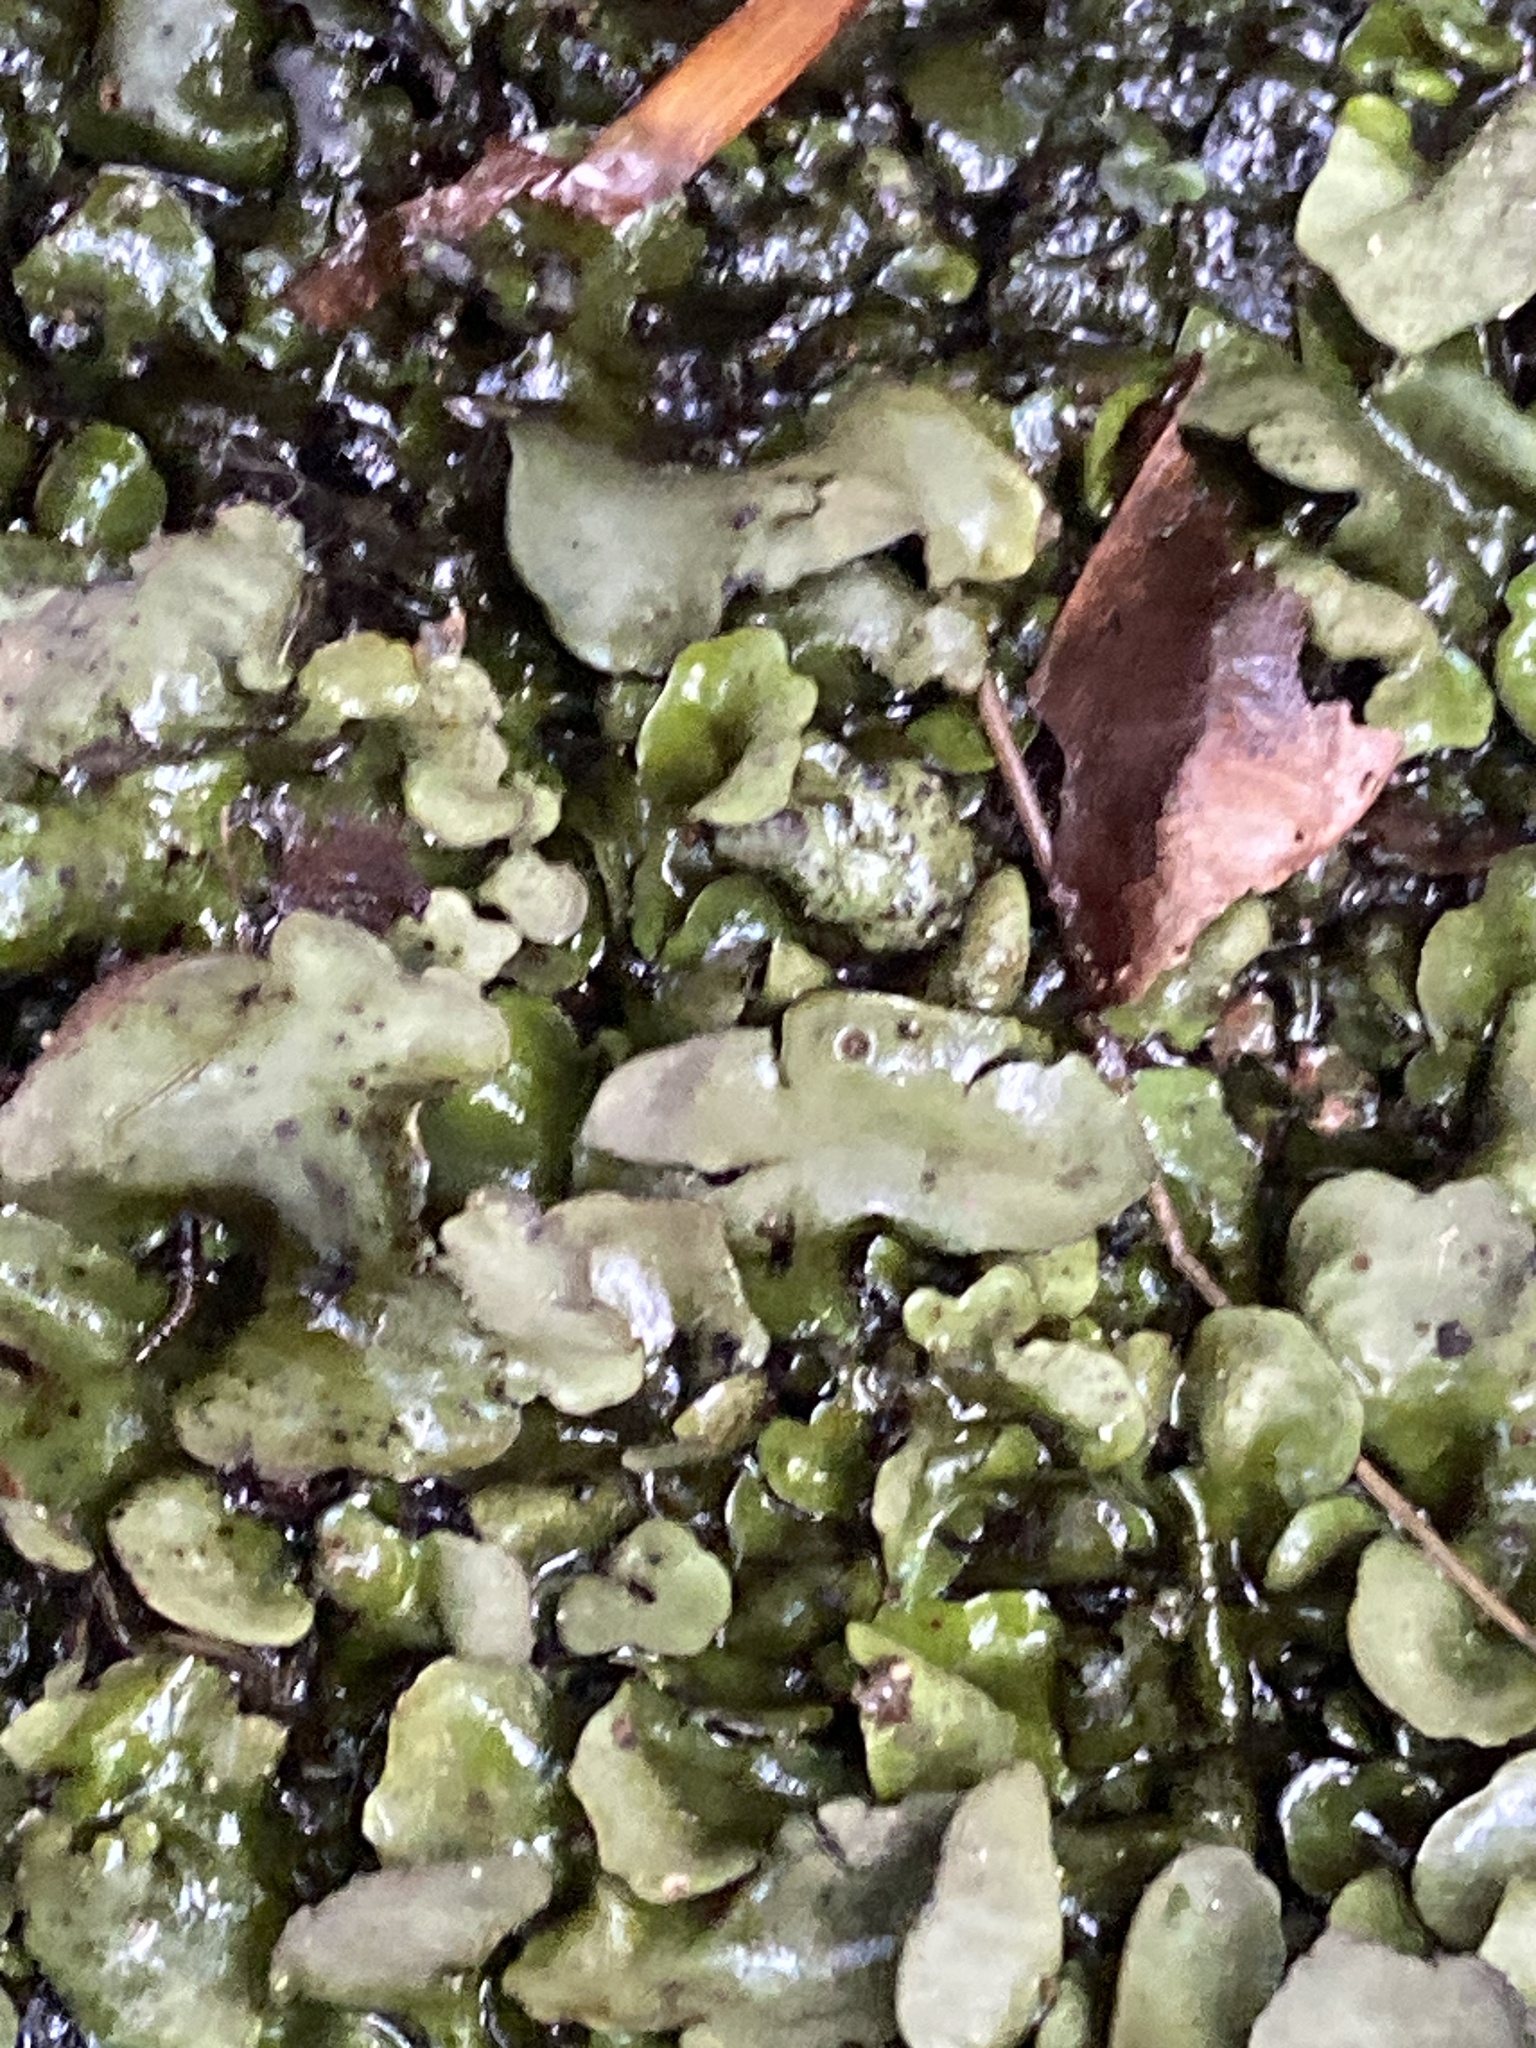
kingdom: Fungi
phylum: Ascomycota
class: Eurotiomycetes
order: Verrucariales
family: Verrucariaceae
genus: Dermatocarpon
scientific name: Dermatocarpon luridum
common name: Brook stippleback lichen
